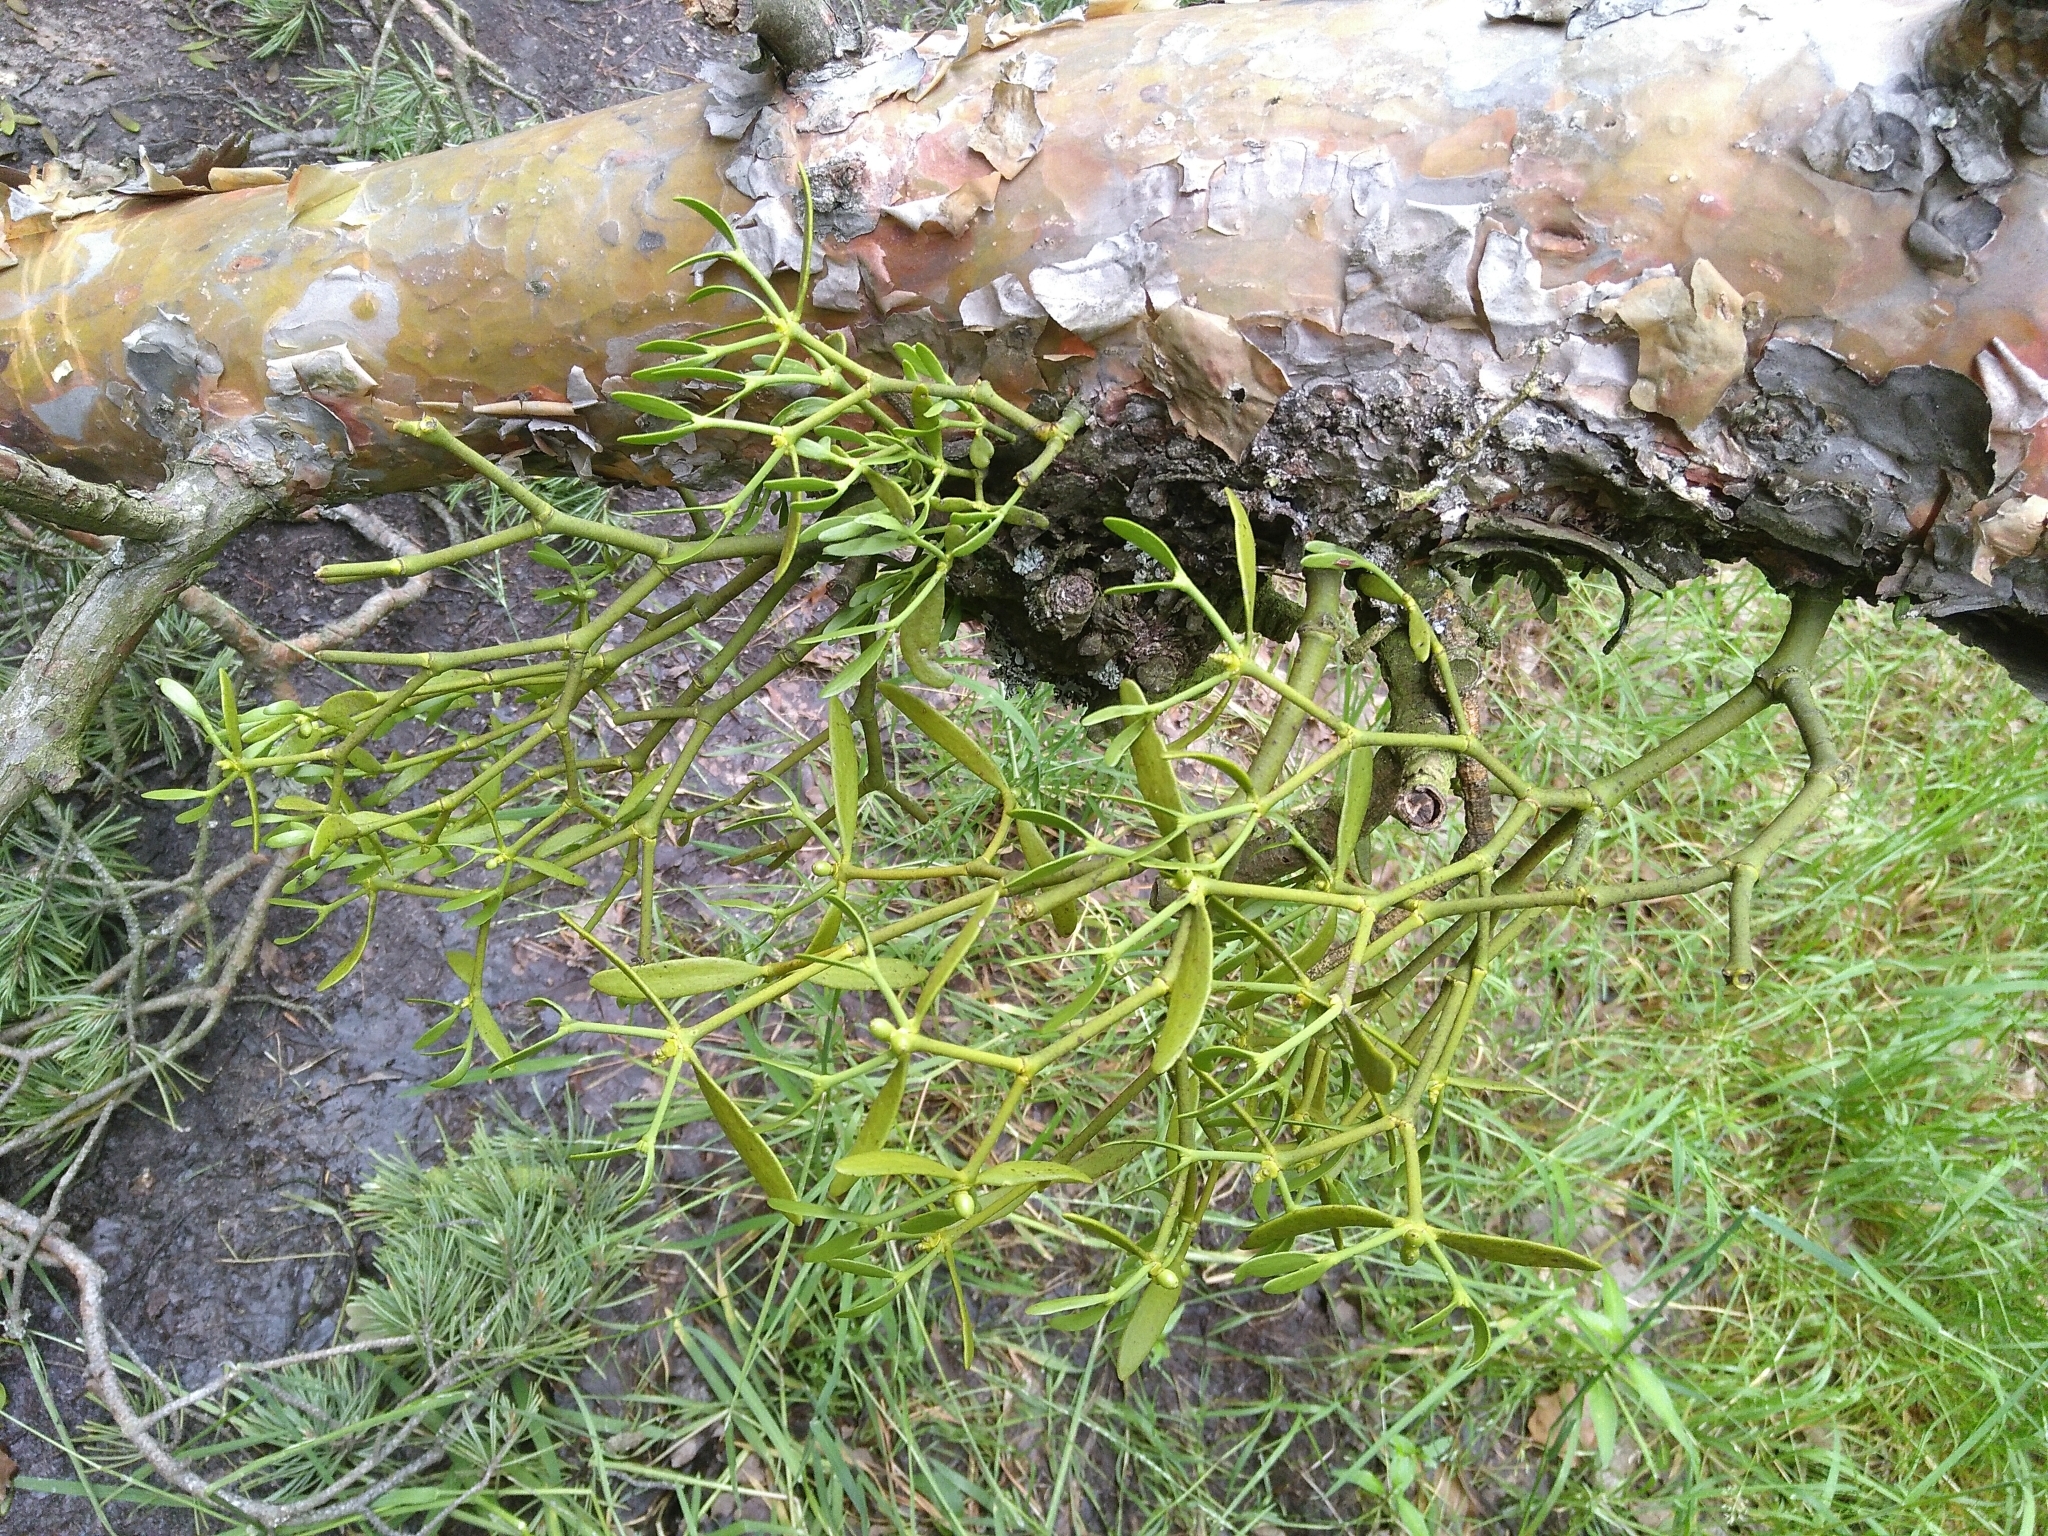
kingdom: Plantae
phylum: Tracheophyta
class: Magnoliopsida
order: Santalales
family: Viscaceae
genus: Viscum
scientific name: Viscum laxum
